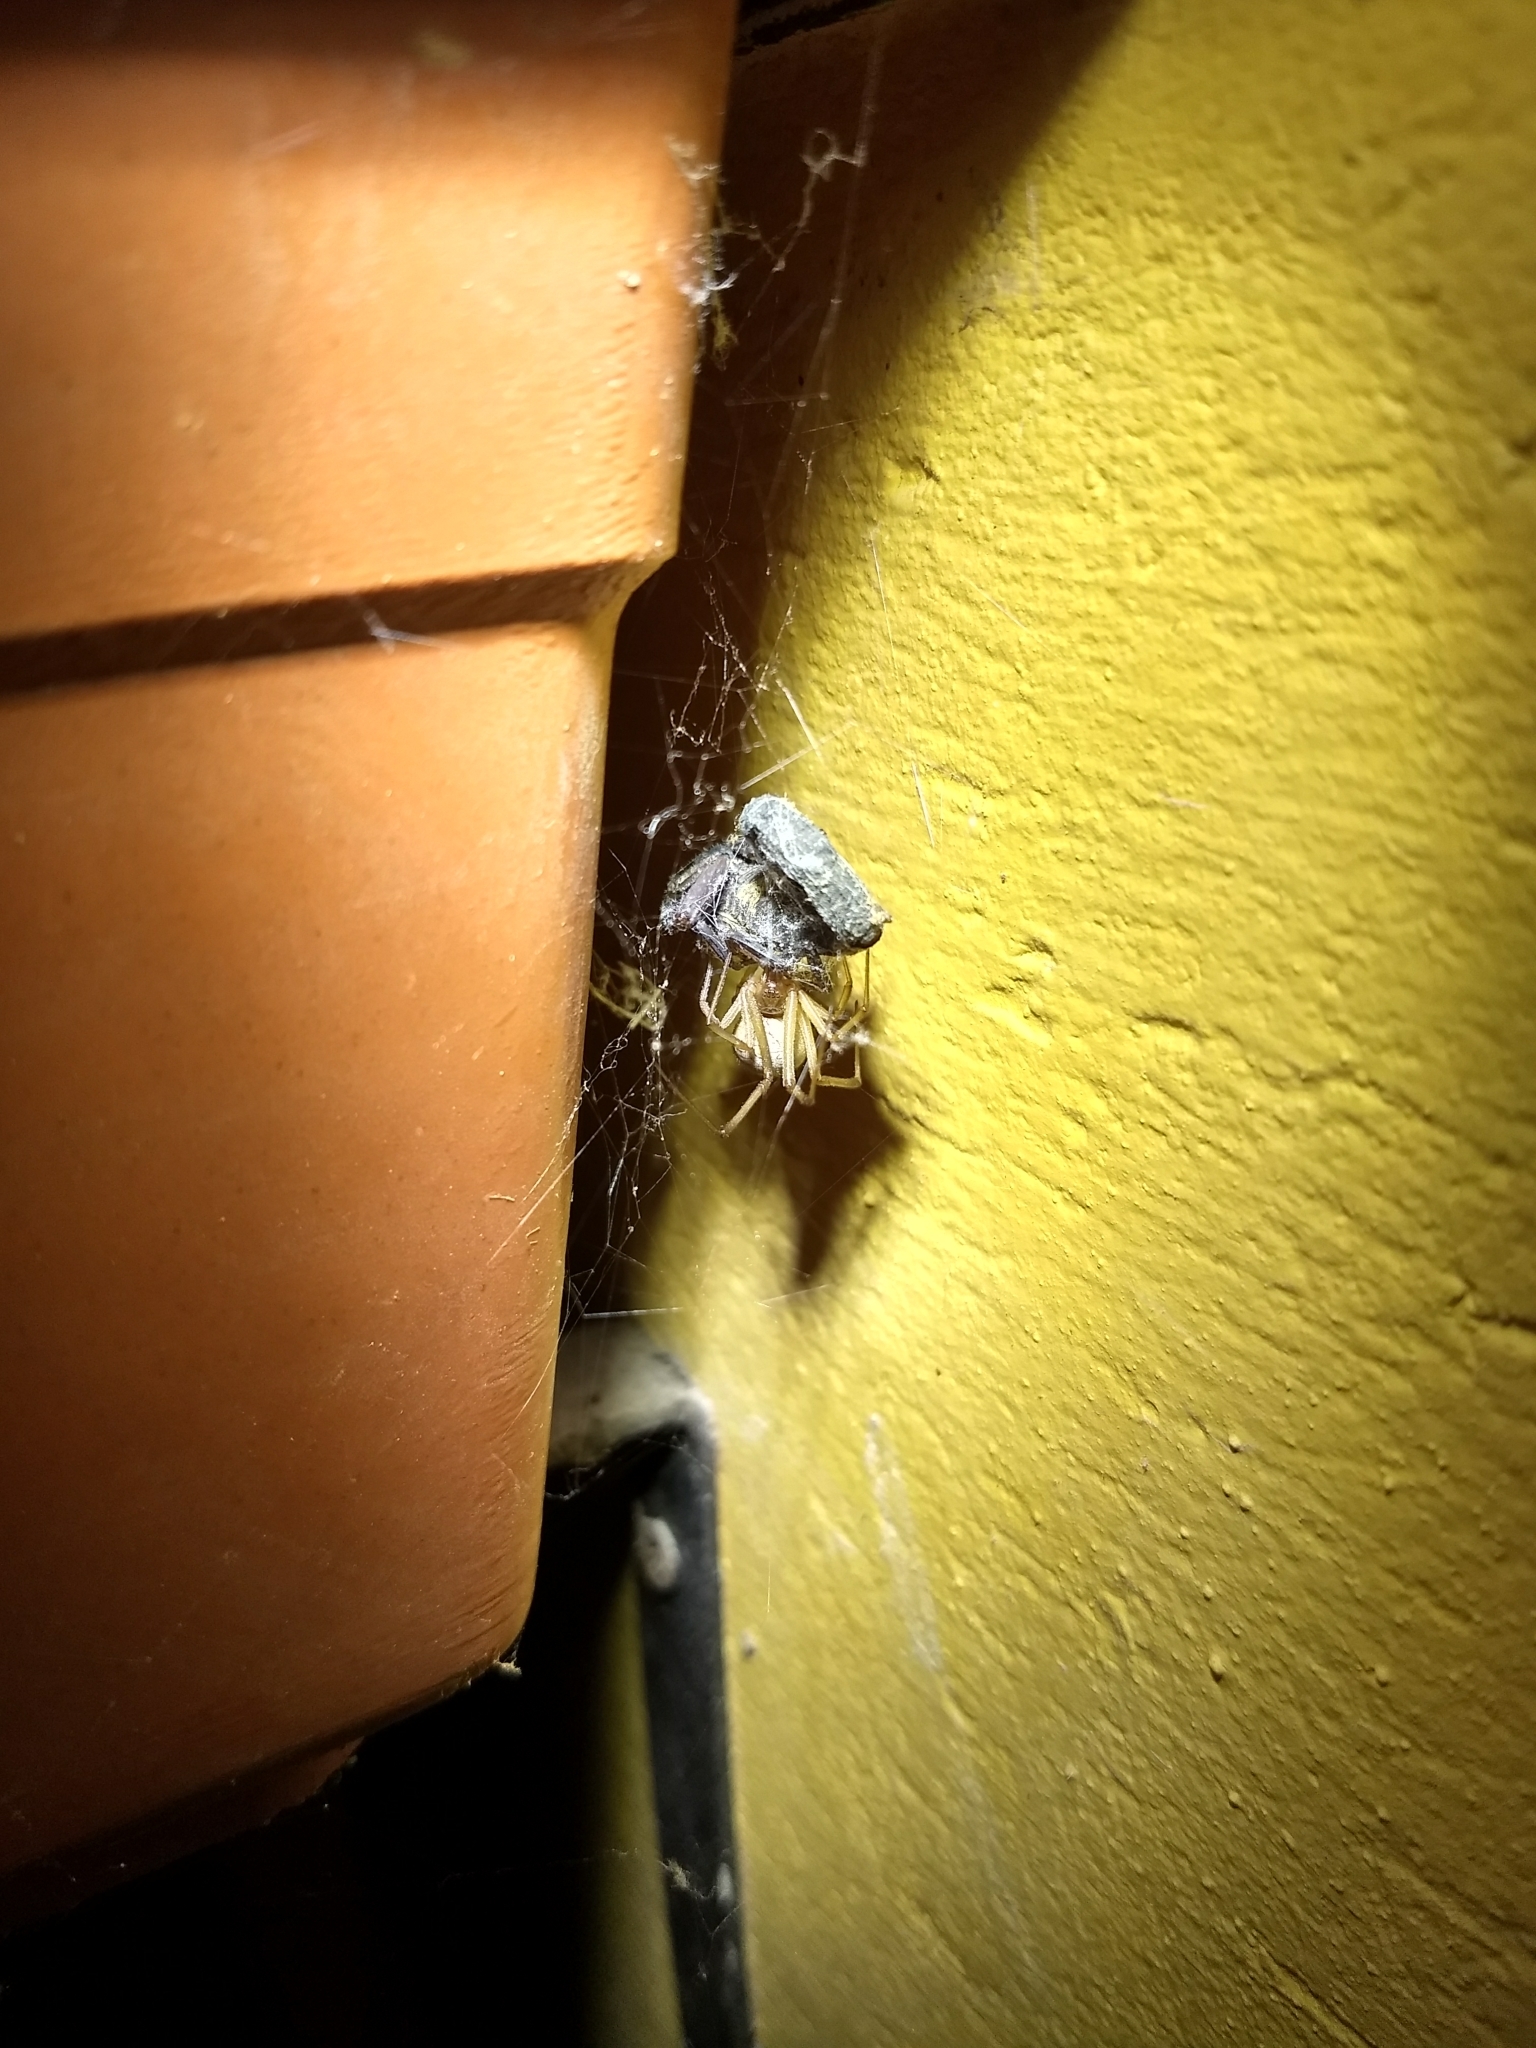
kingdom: Animalia
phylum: Arthropoda
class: Arachnida
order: Araneae
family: Theridiidae
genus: Latrodectus
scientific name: Latrodectus geometricus
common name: Brown widow spider
